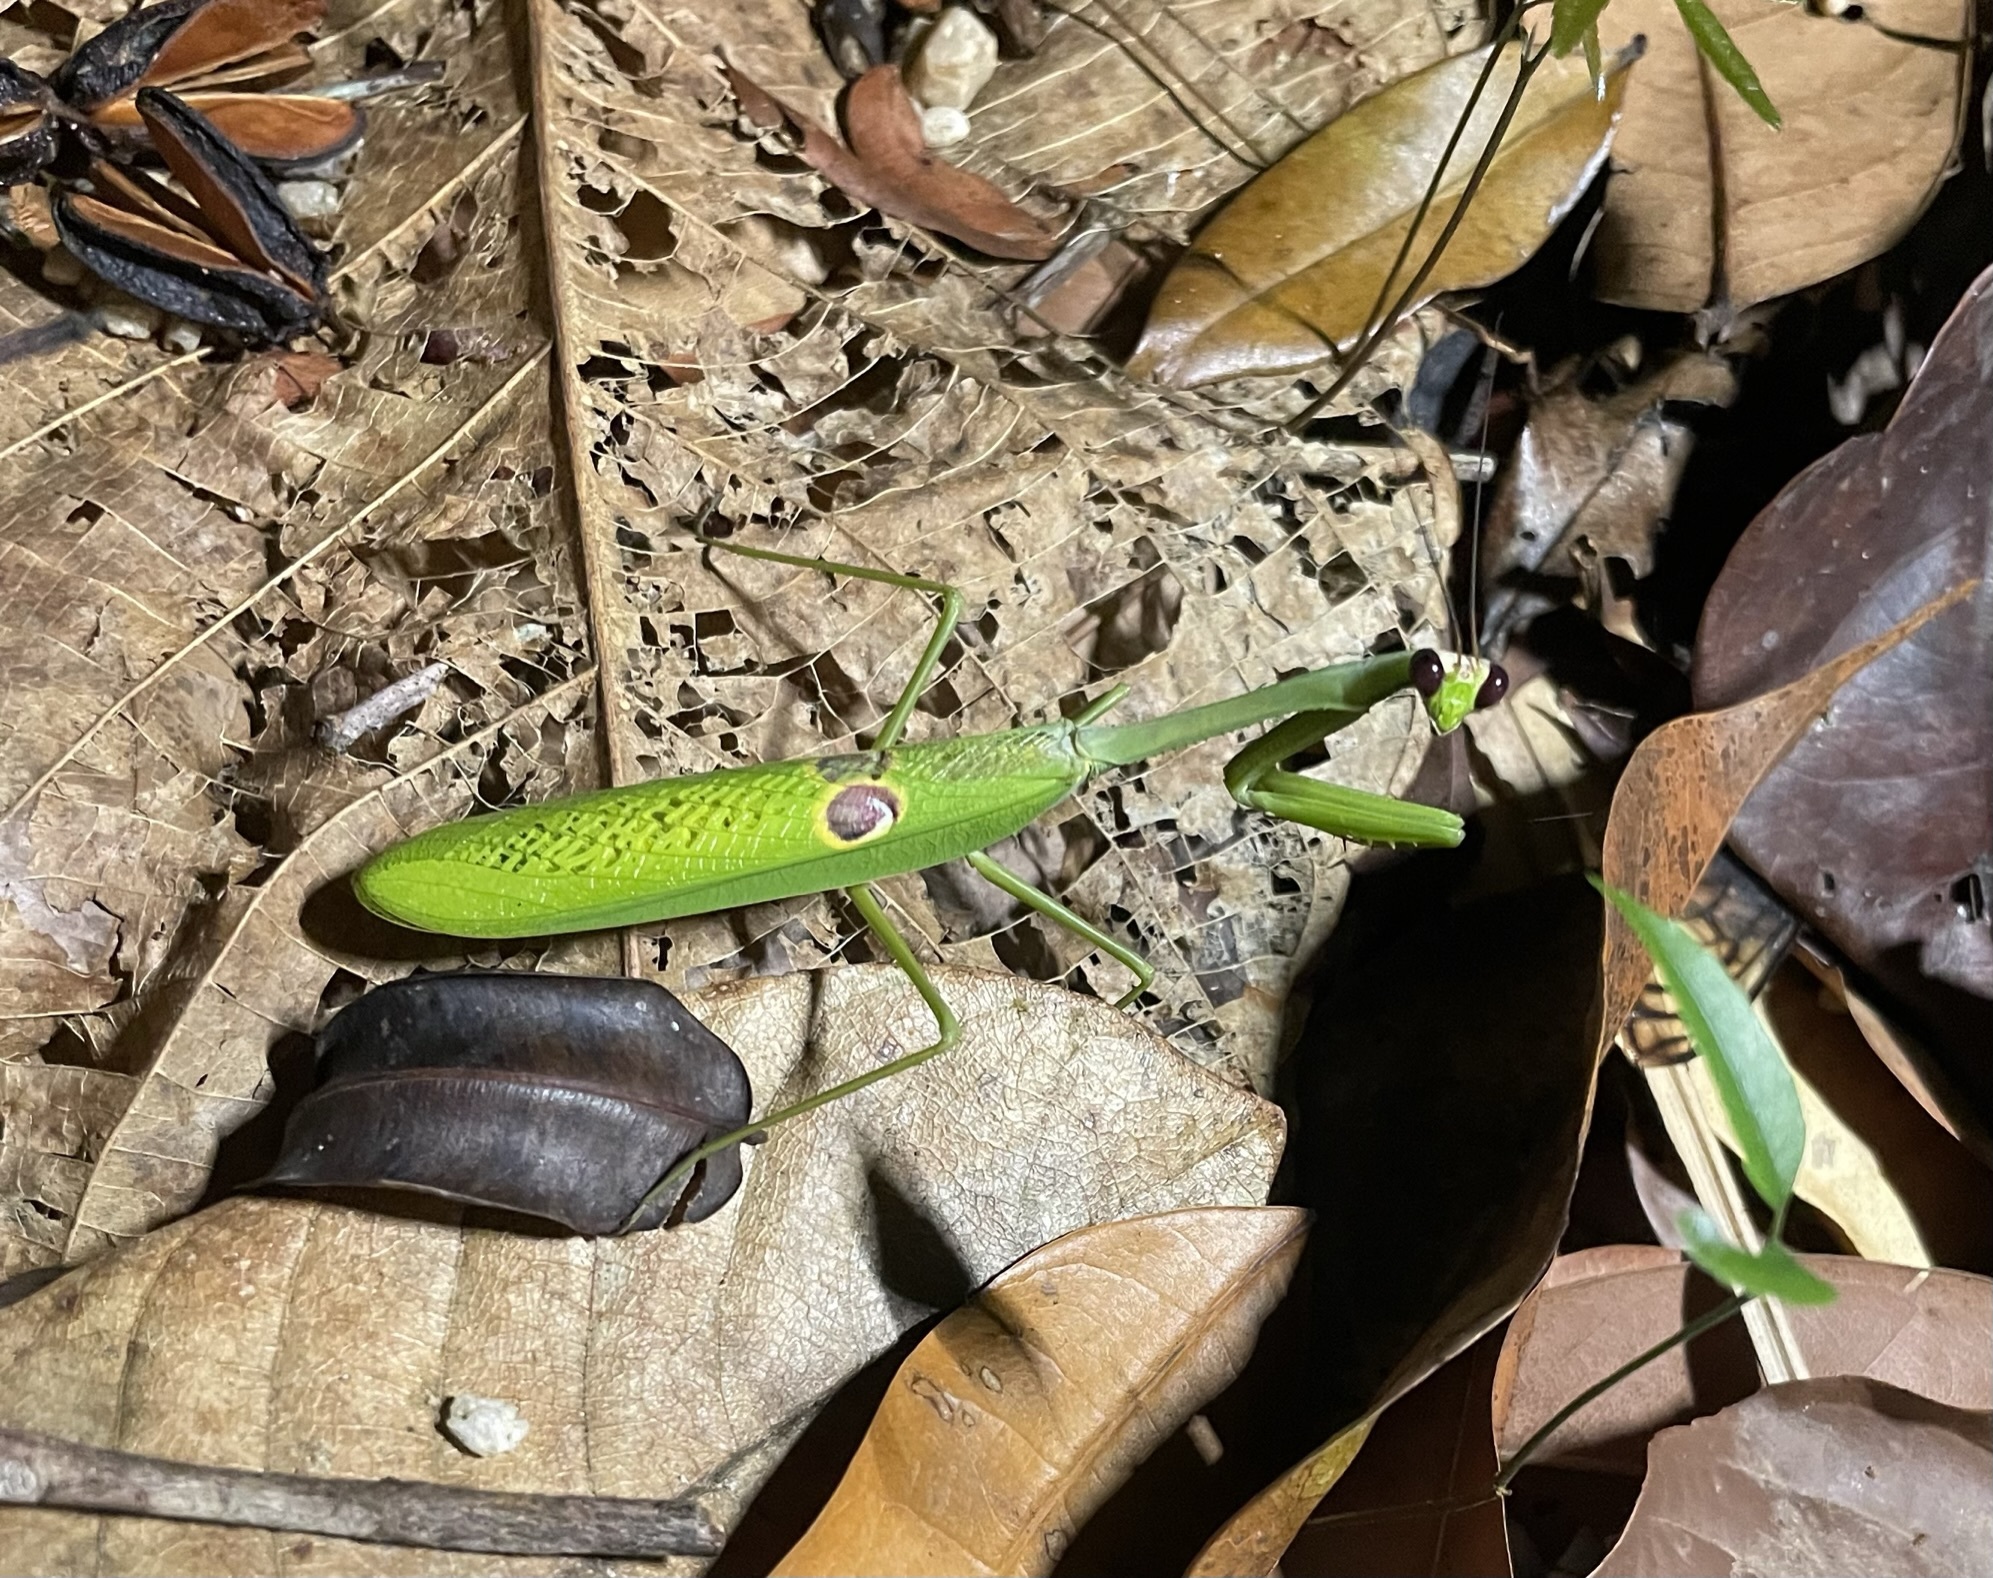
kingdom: Animalia
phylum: Arthropoda
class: Insecta
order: Mantodea
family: Mantidae
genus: Stagmatoptera
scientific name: Stagmatoptera binotata
